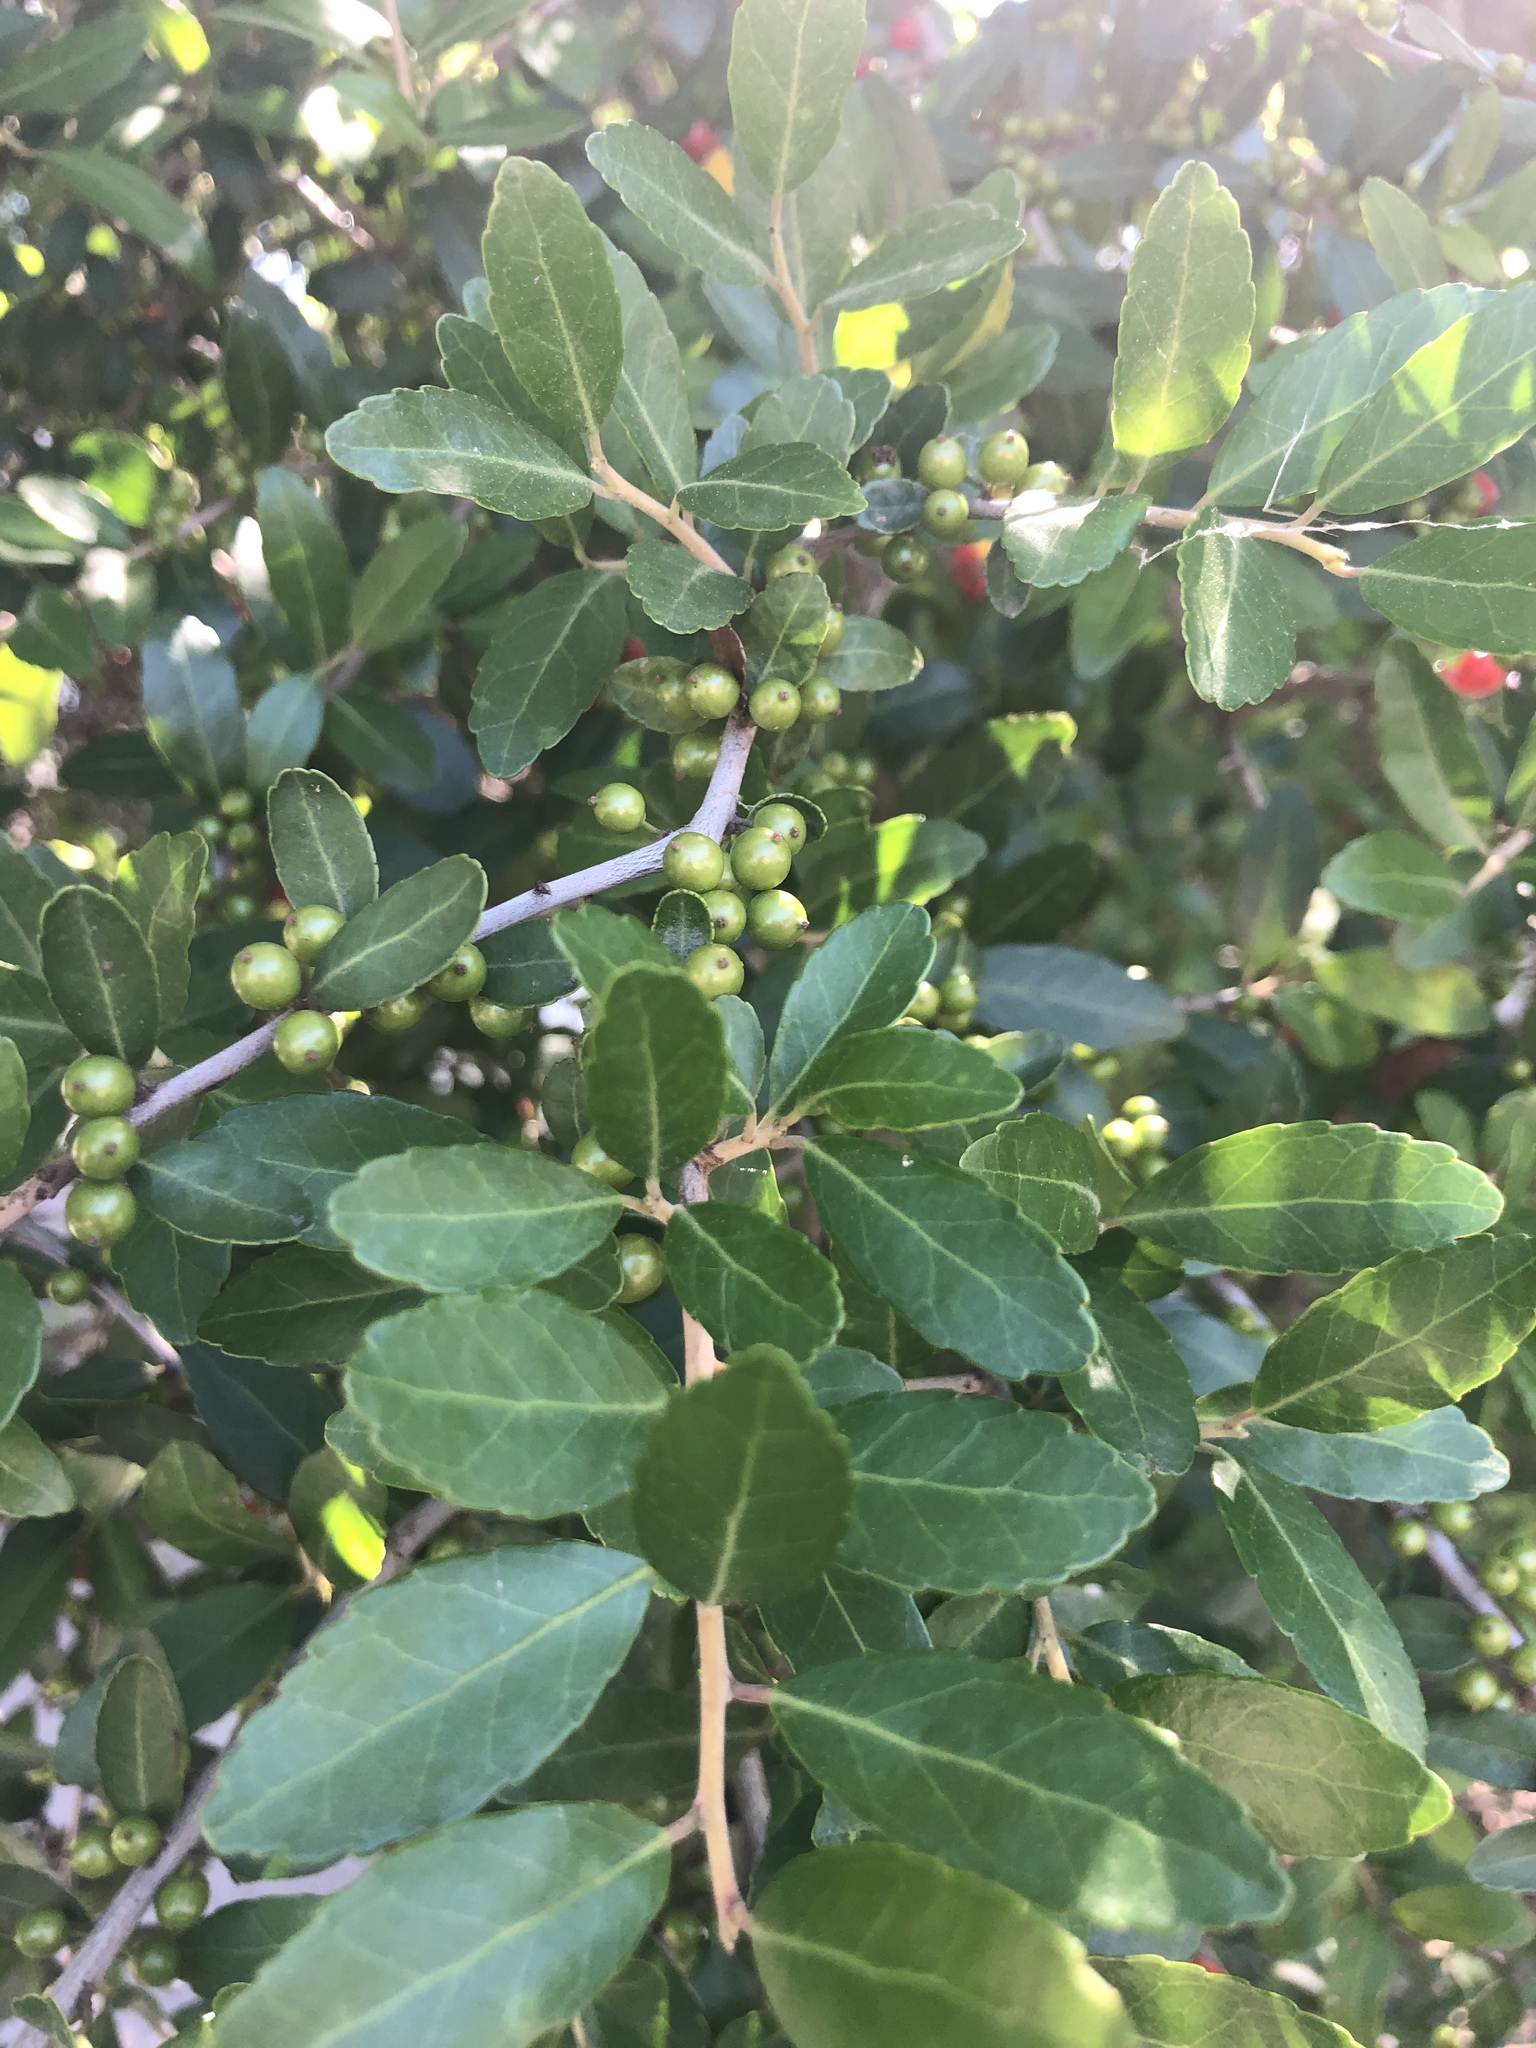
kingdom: Plantae
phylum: Tracheophyta
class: Magnoliopsida
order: Aquifoliales
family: Aquifoliaceae
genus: Ilex
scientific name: Ilex vomitoria
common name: Yaupon holly
